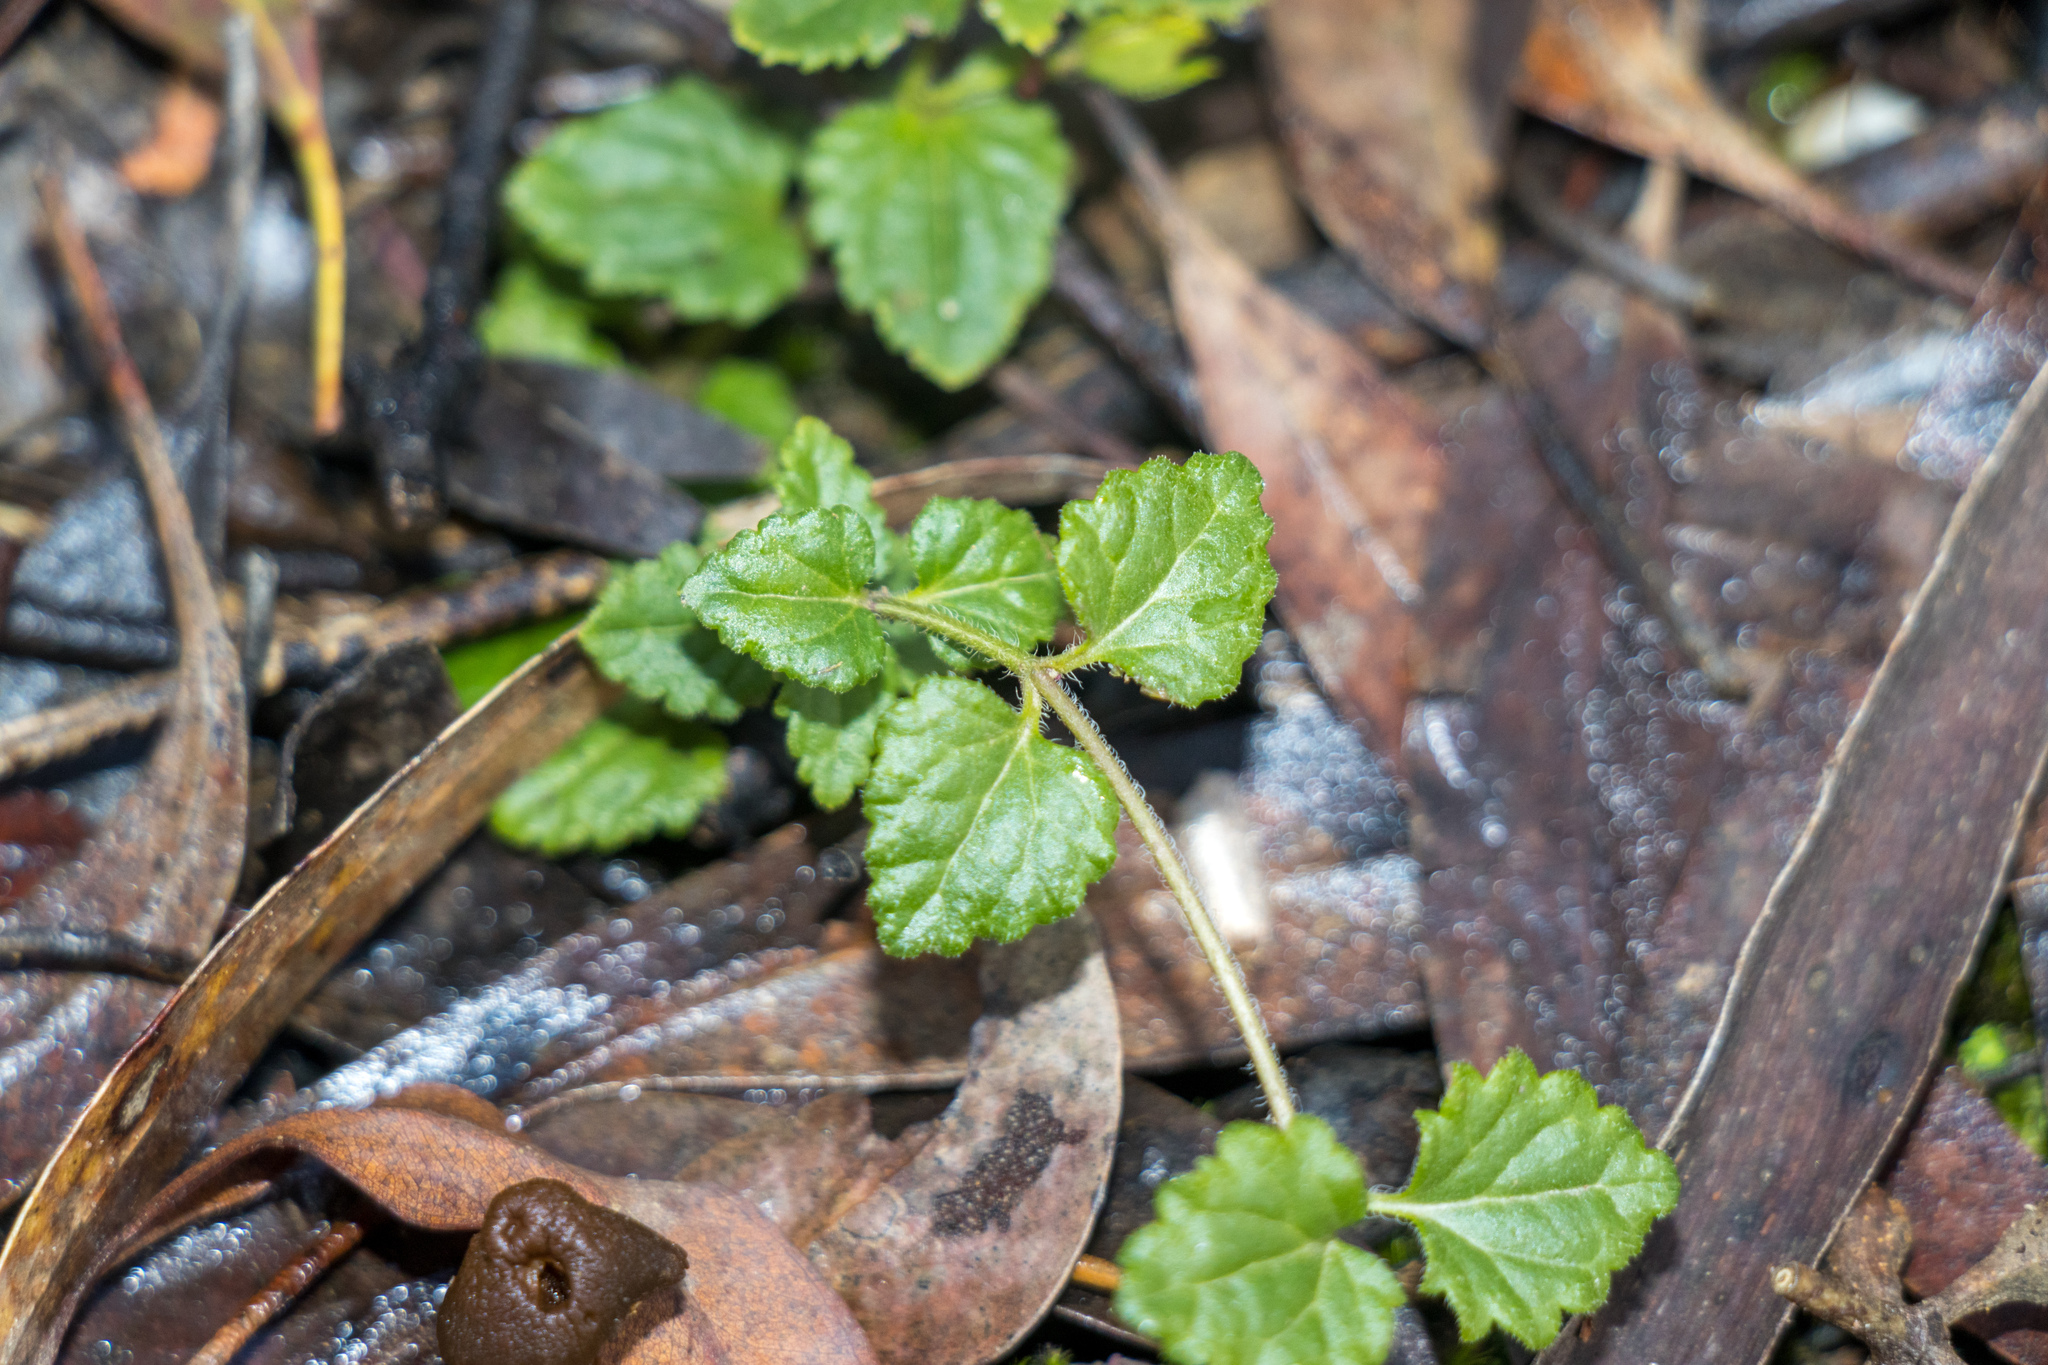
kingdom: Plantae
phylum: Tracheophyta
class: Magnoliopsida
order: Lamiales
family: Plantaginaceae
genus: Veronica
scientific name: Veronica calycina
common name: Cup speedwell
